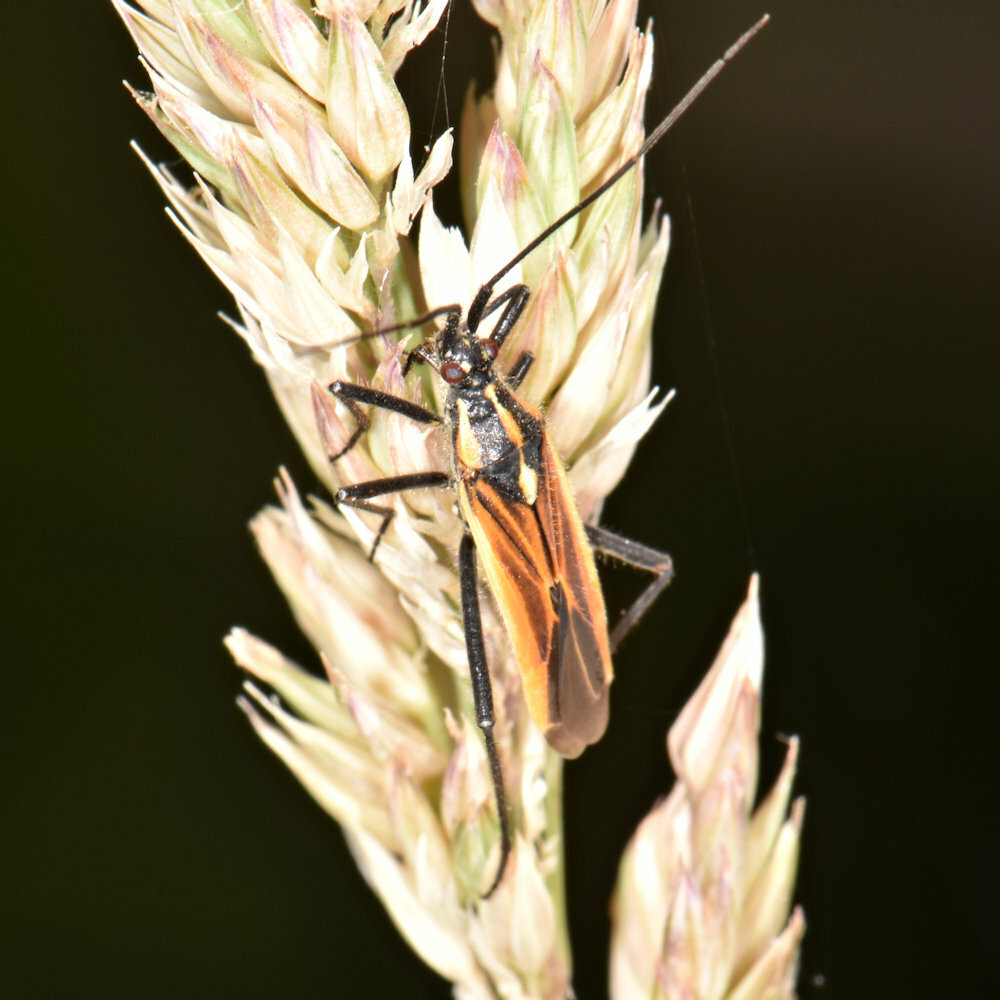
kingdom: Animalia
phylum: Arthropoda
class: Insecta
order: Hemiptera
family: Miridae
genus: Leptopterna
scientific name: Leptopterna dolabrata
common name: Meadow plant bug
